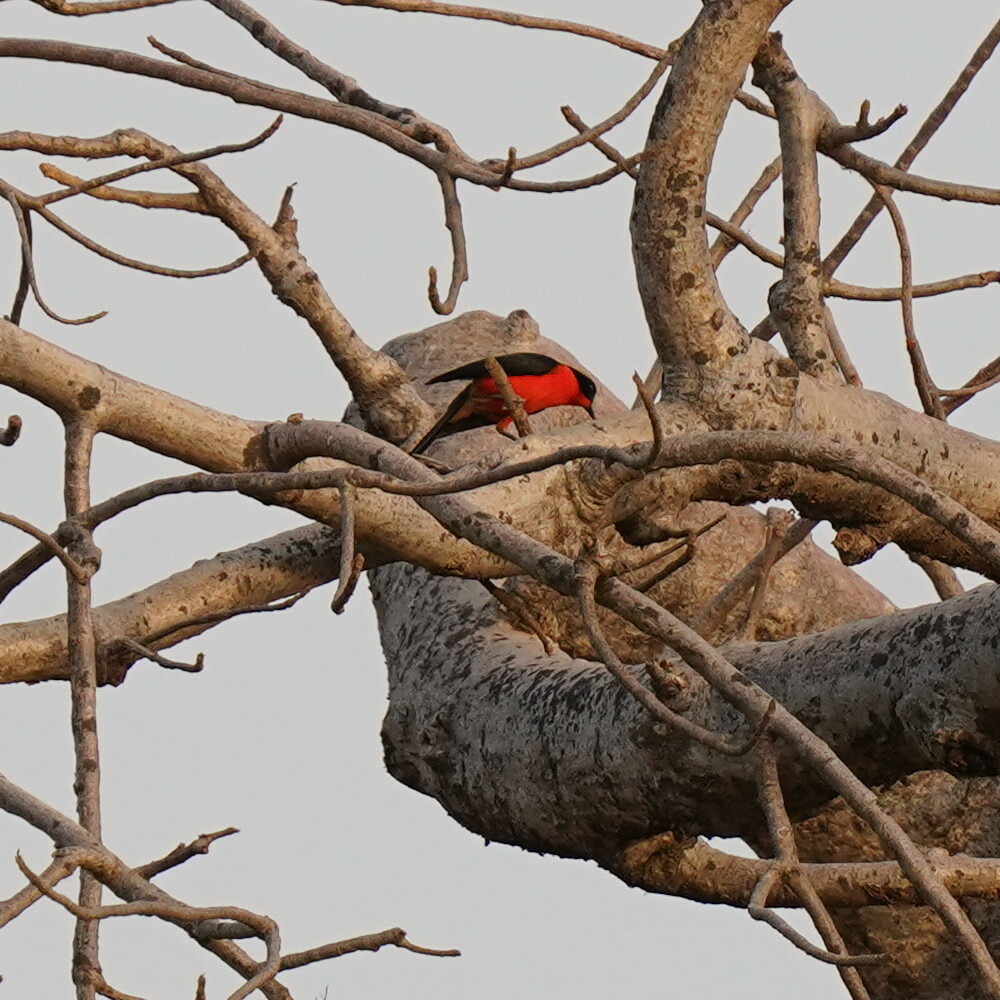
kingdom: Animalia
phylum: Chordata
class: Aves
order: Passeriformes
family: Malaconotidae
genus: Laniarius
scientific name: Laniarius barbarus
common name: Yellow-crowned gonolek
